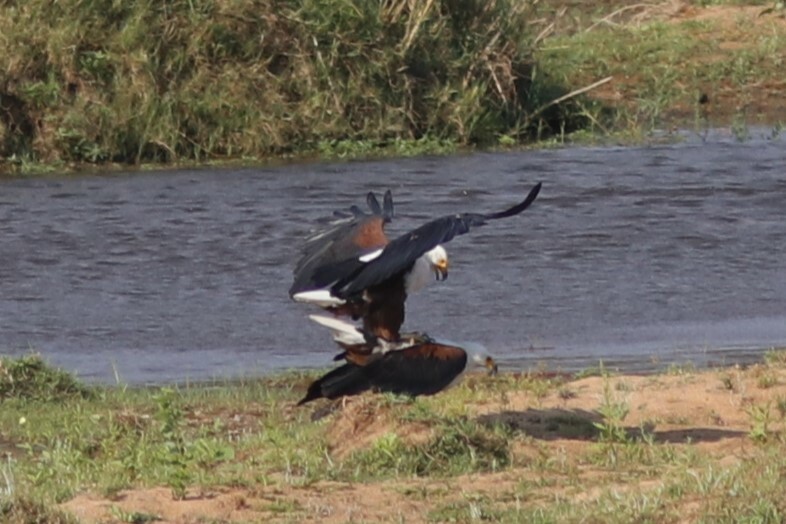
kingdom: Animalia
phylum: Chordata
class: Aves
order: Accipitriformes
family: Accipitridae
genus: Haliaeetus
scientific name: Haliaeetus vocifer
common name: African fish eagle
